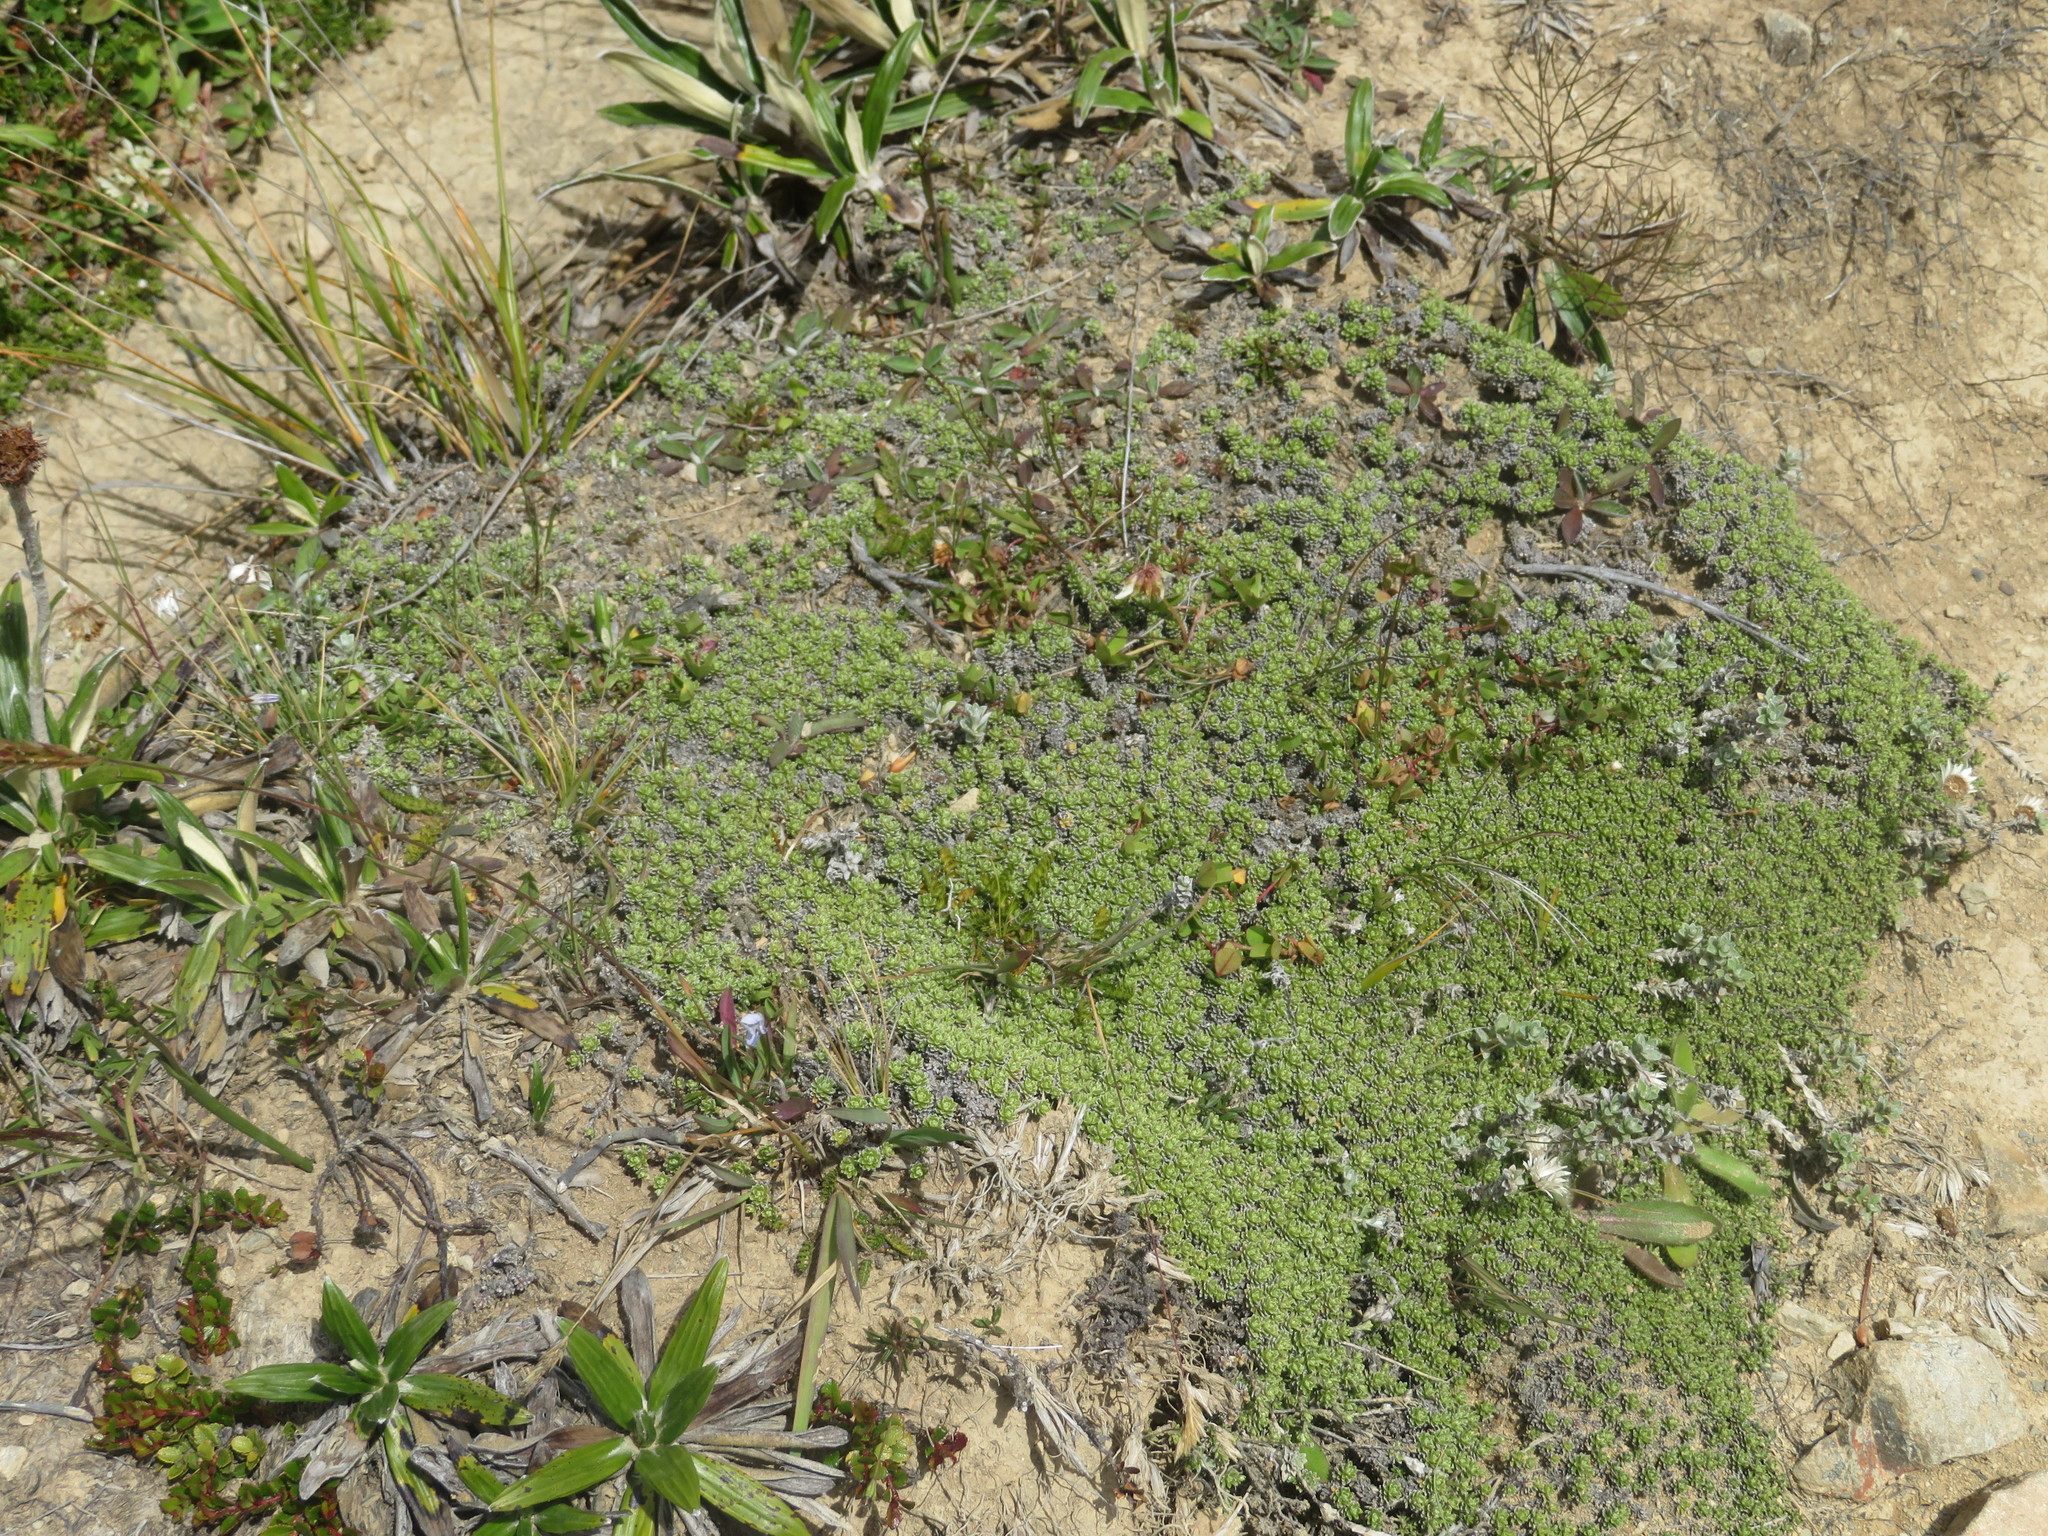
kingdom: Plantae
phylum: Tracheophyta
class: Magnoliopsida
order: Asterales
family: Asteraceae
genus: Raoulia
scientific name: Raoulia subsericea
